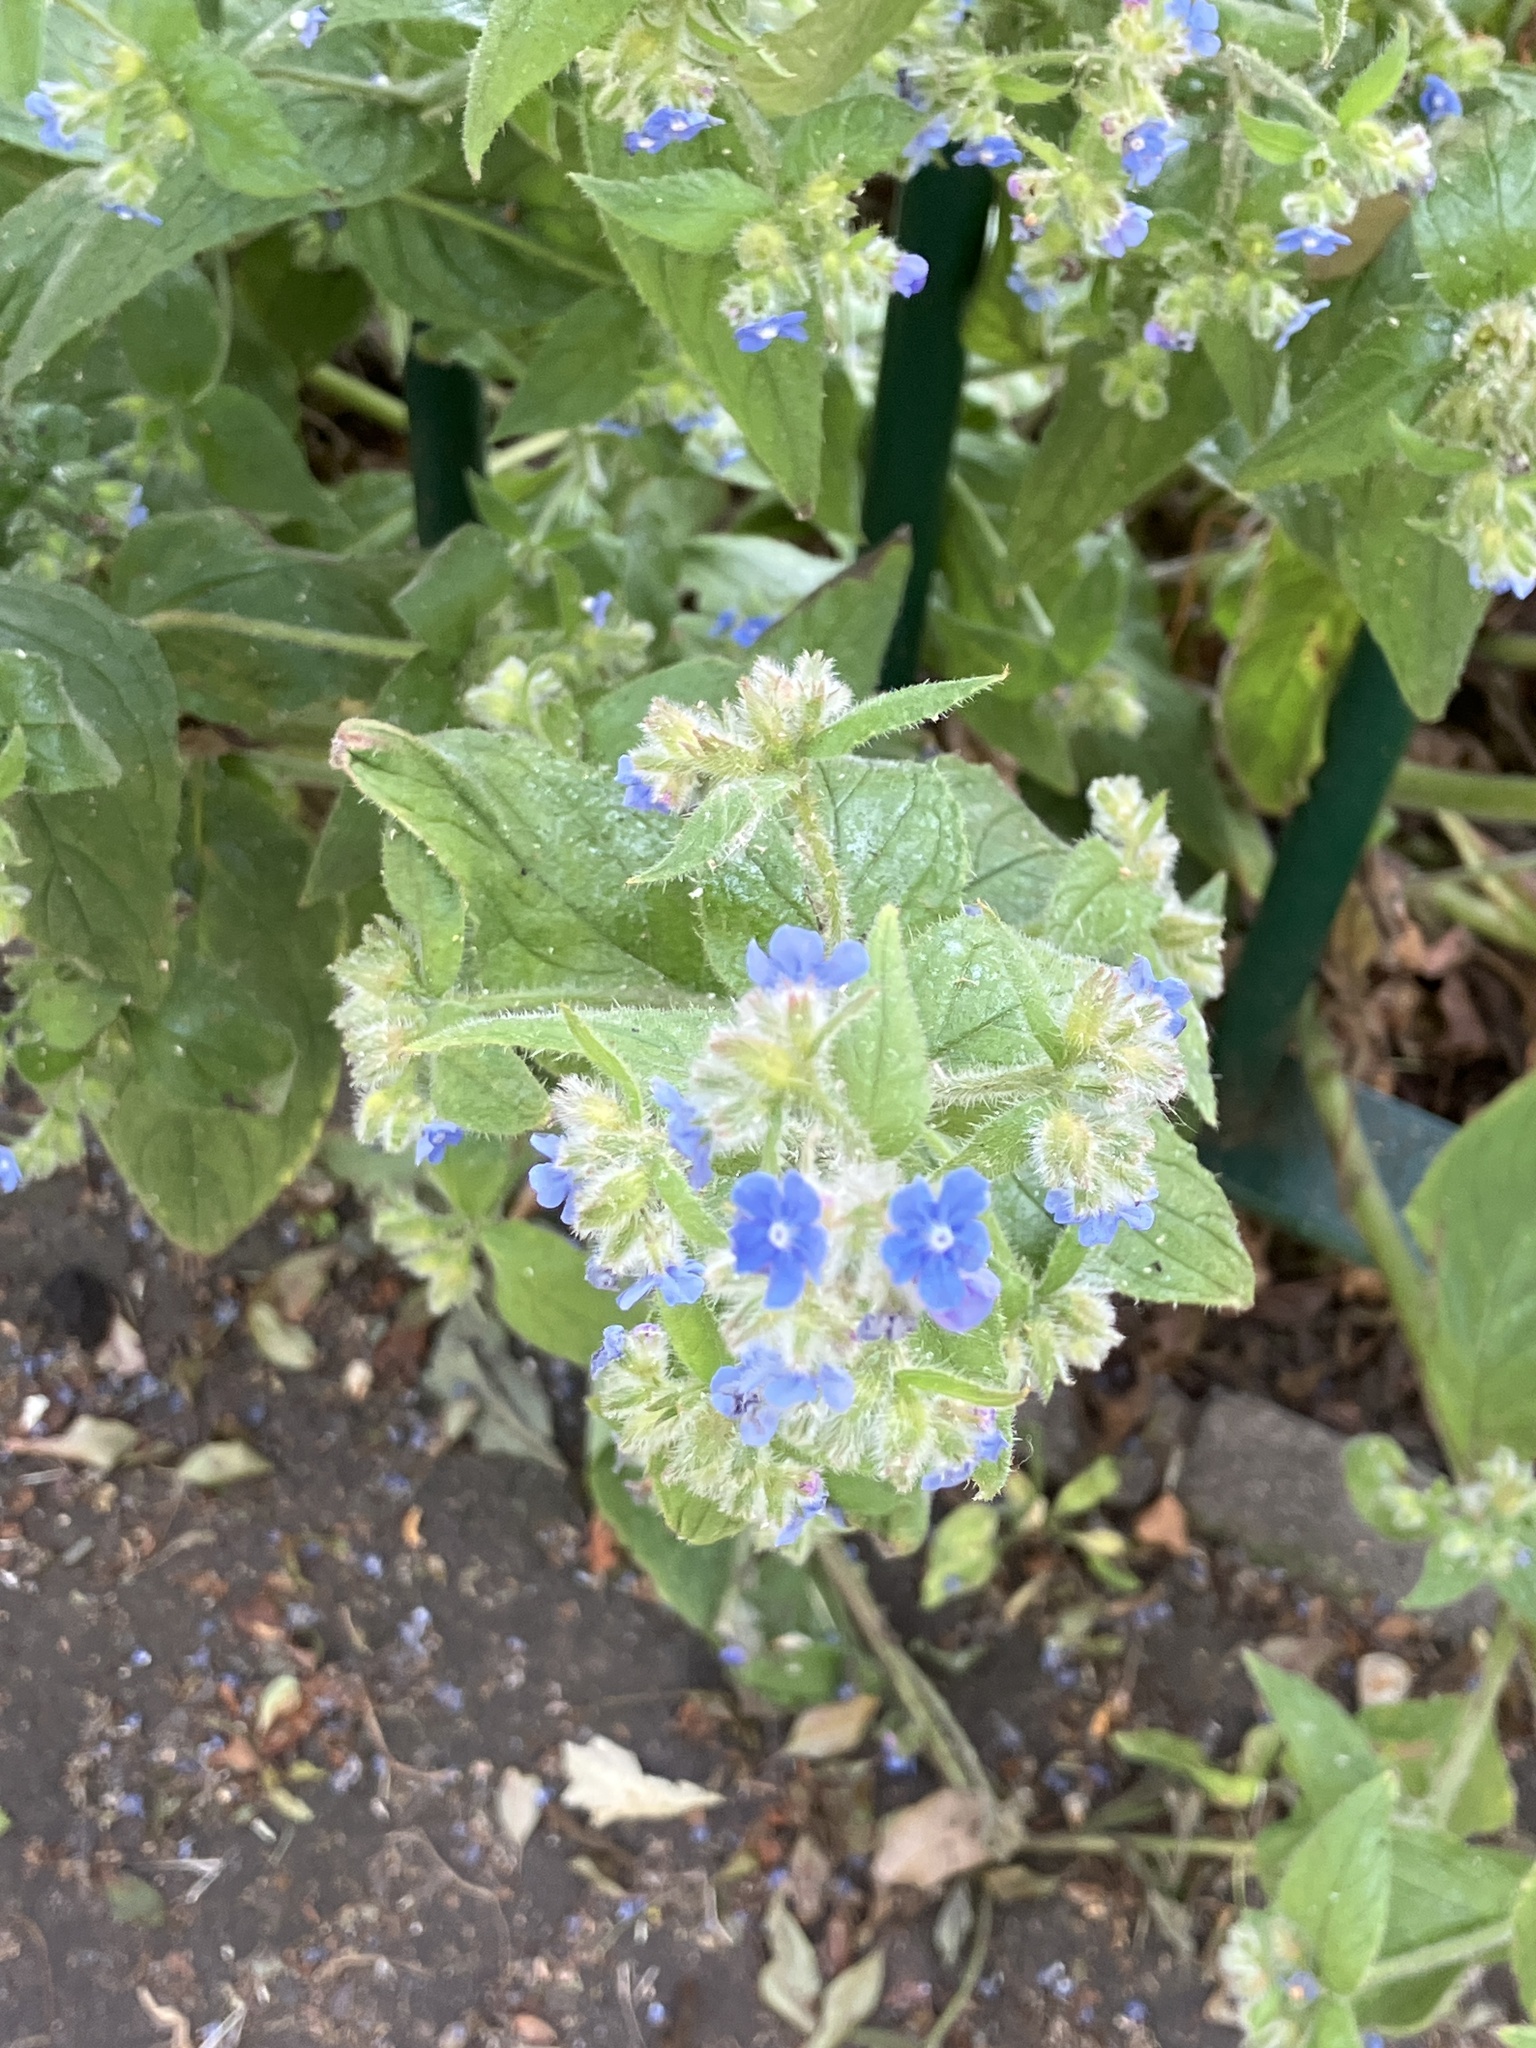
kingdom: Plantae
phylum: Tracheophyta
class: Magnoliopsida
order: Boraginales
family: Boraginaceae
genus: Pentaglottis
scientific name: Pentaglottis sempervirens
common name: Green alkanet
